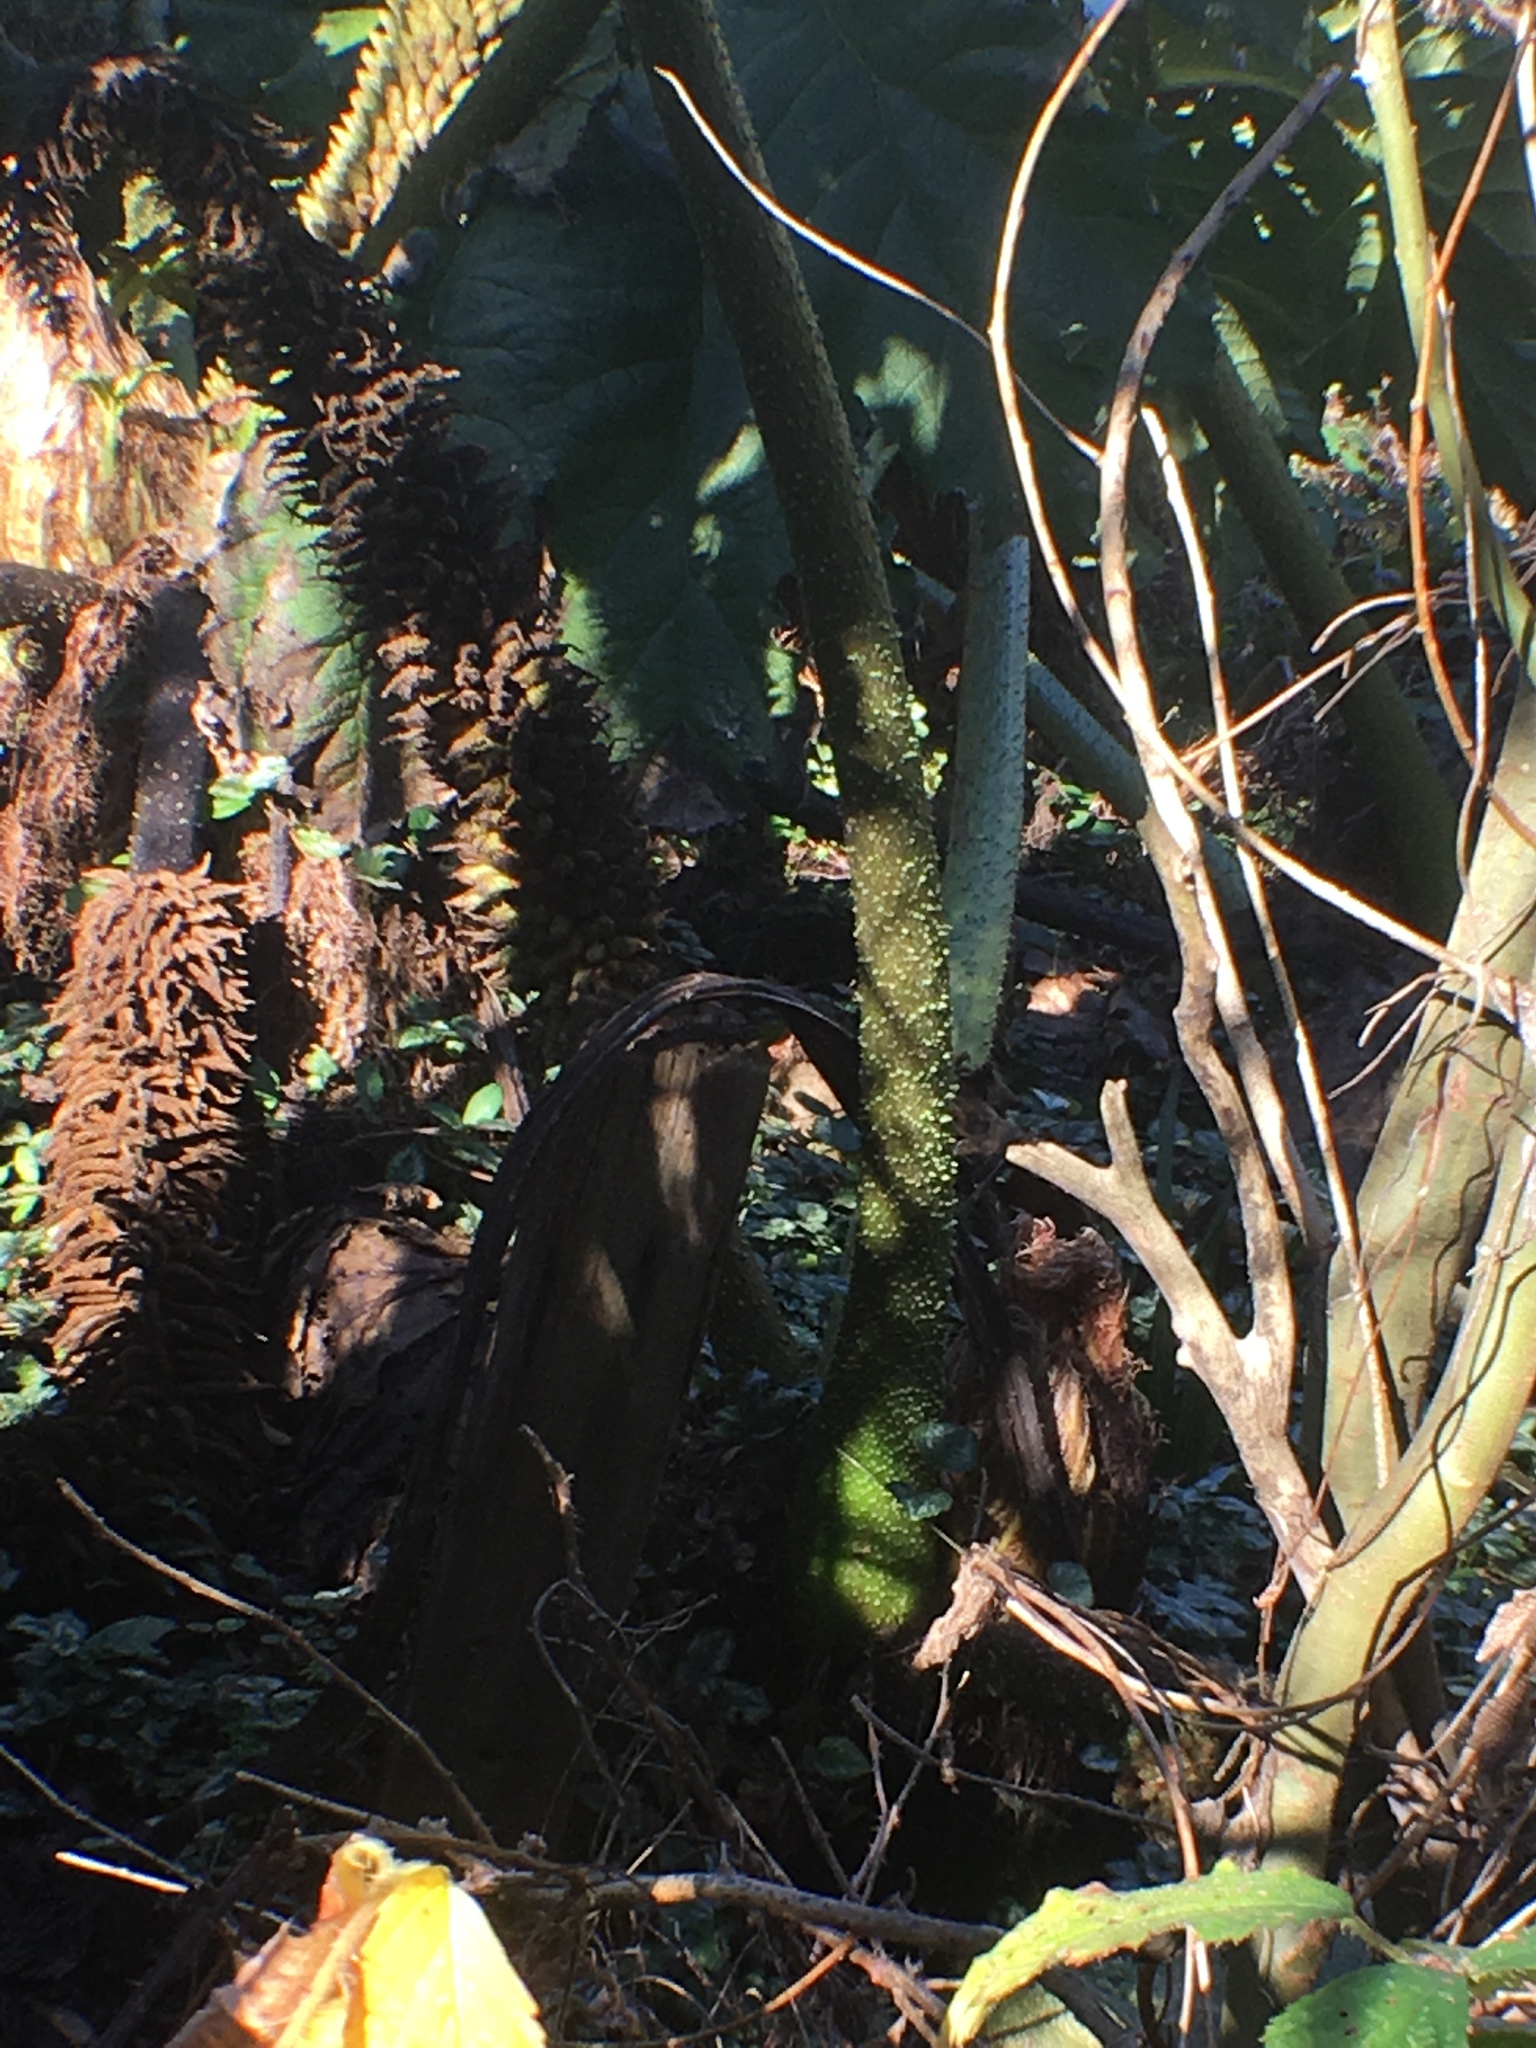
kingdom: Plantae
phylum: Tracheophyta
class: Magnoliopsida
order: Gunnerales
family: Gunneraceae
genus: Gunnera
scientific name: Gunnera tinctoria
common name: Giant-rhubarb
